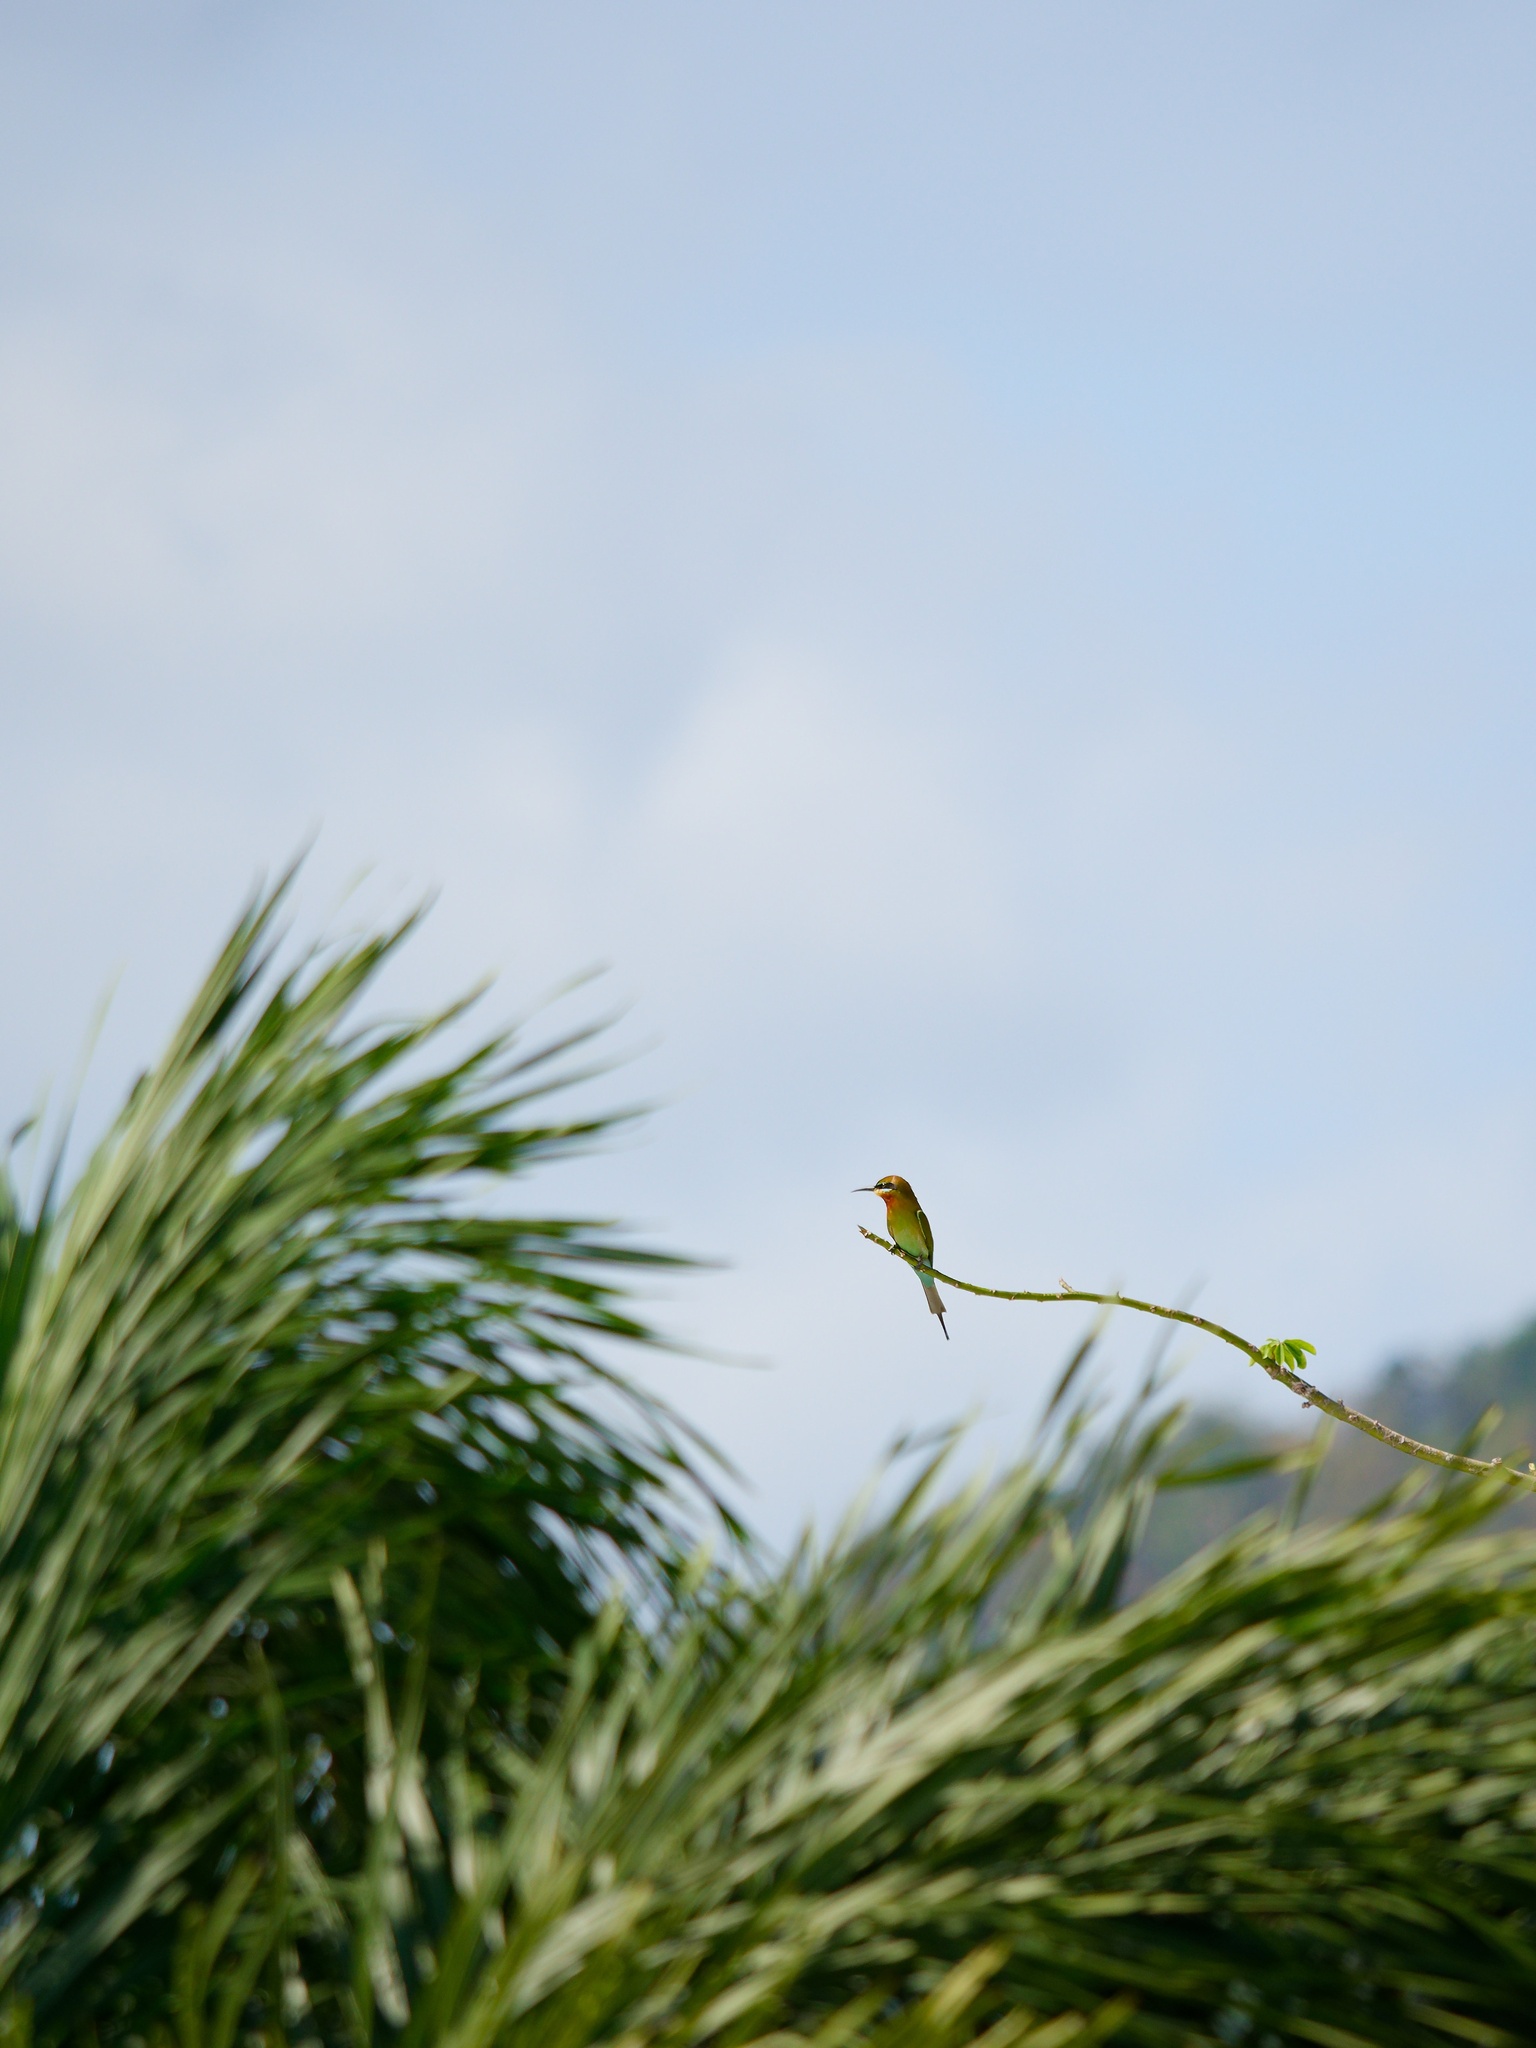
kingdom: Animalia
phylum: Chordata
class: Aves
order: Coraciiformes
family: Meropidae
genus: Merops
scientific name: Merops philippinus
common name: Blue-tailed bee-eater
